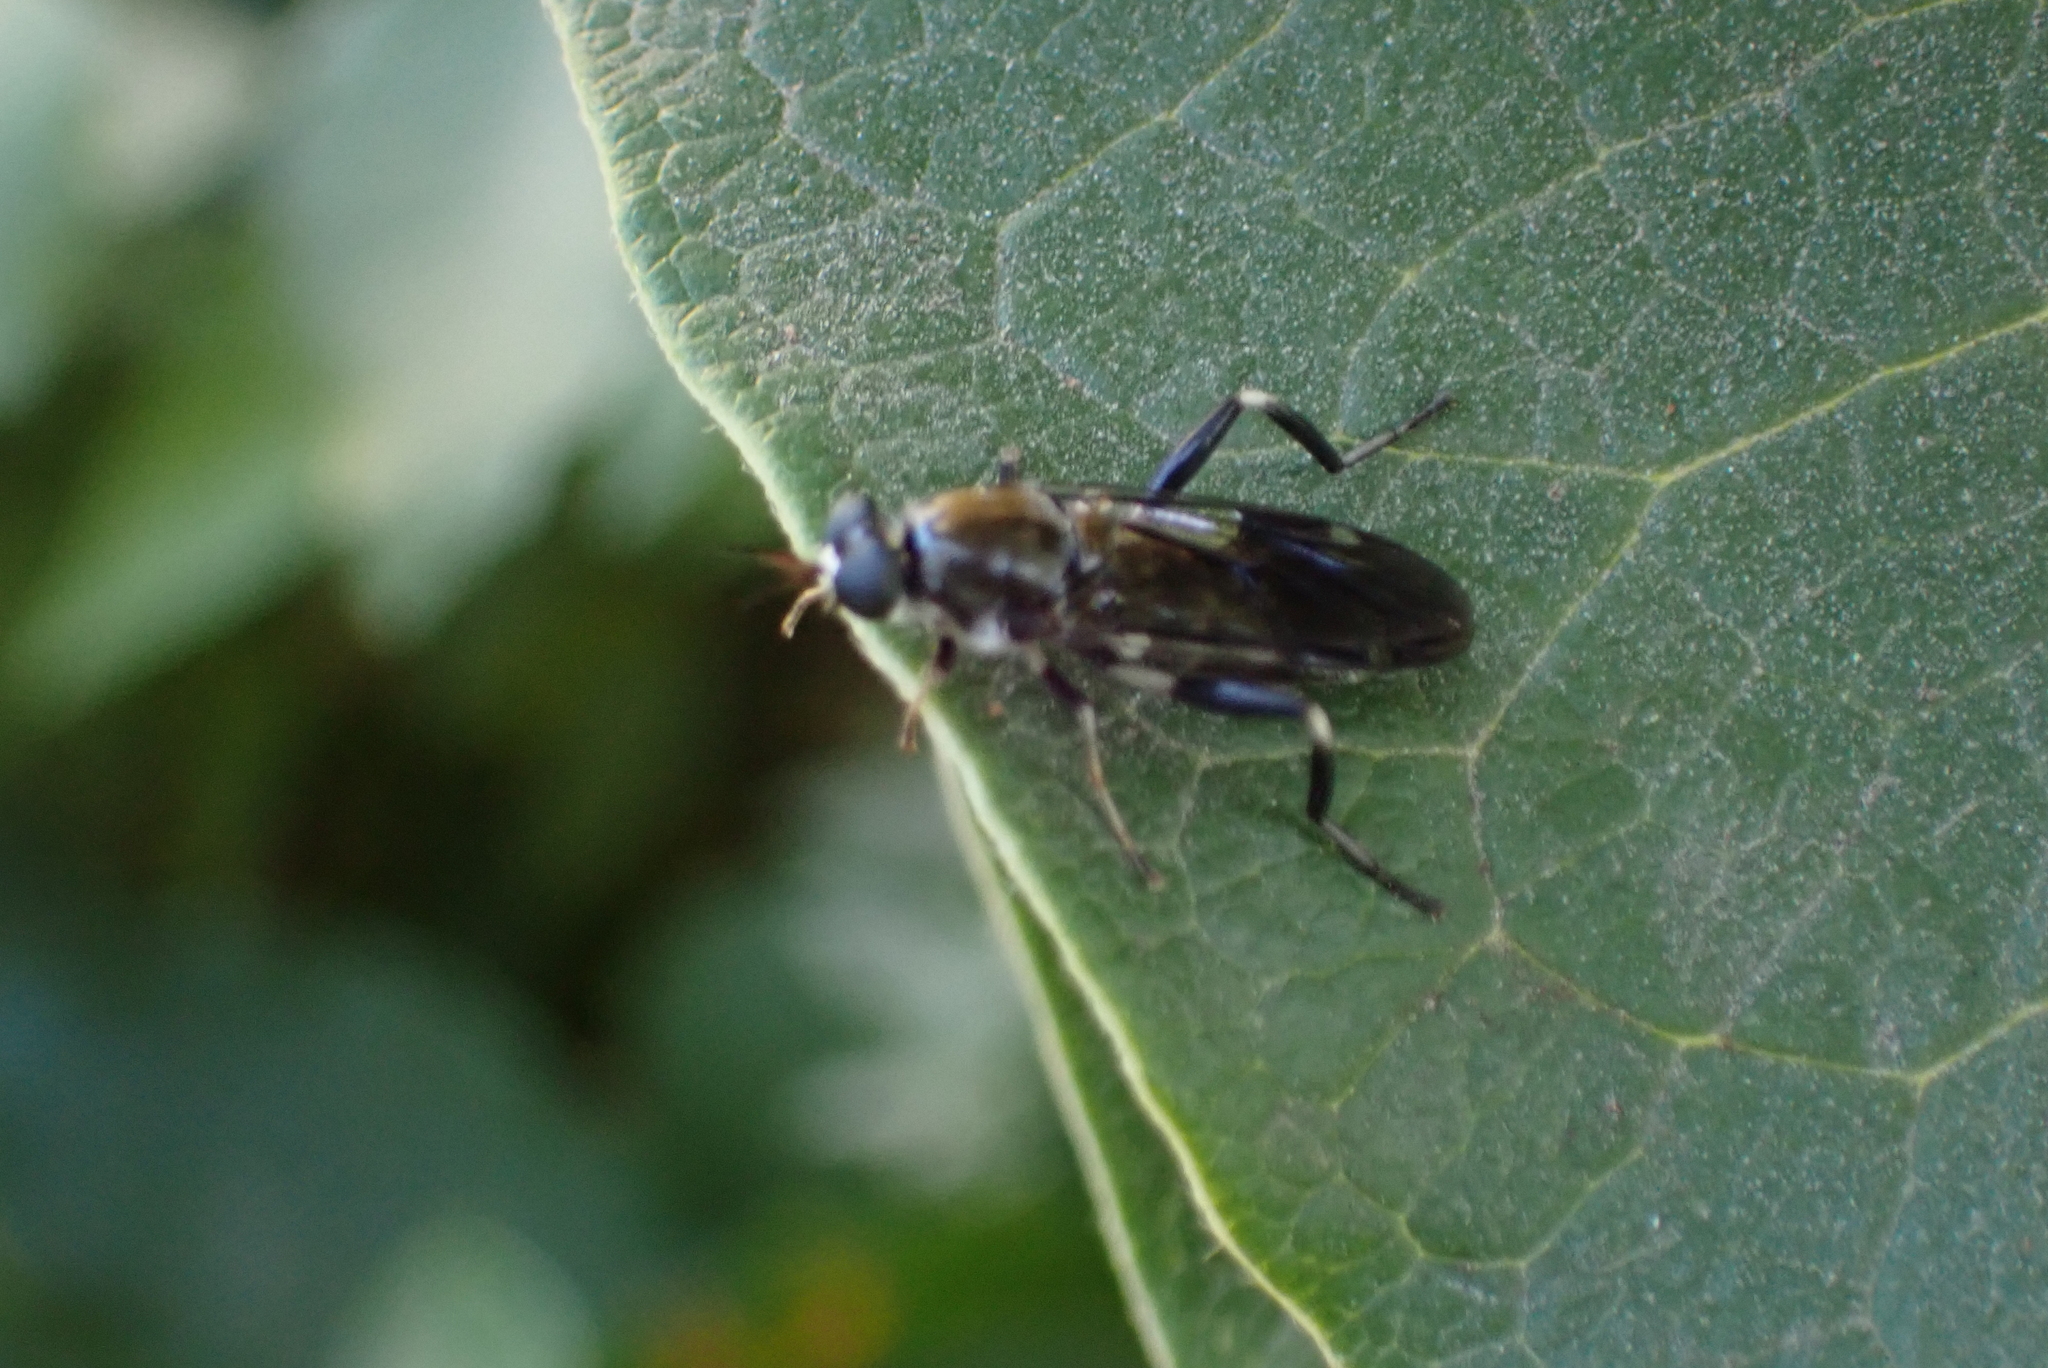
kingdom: Animalia
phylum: Arthropoda
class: Insecta
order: Diptera
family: Stratiomyidae
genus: Exaireta
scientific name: Exaireta spinigera
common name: Blue soldier fly
